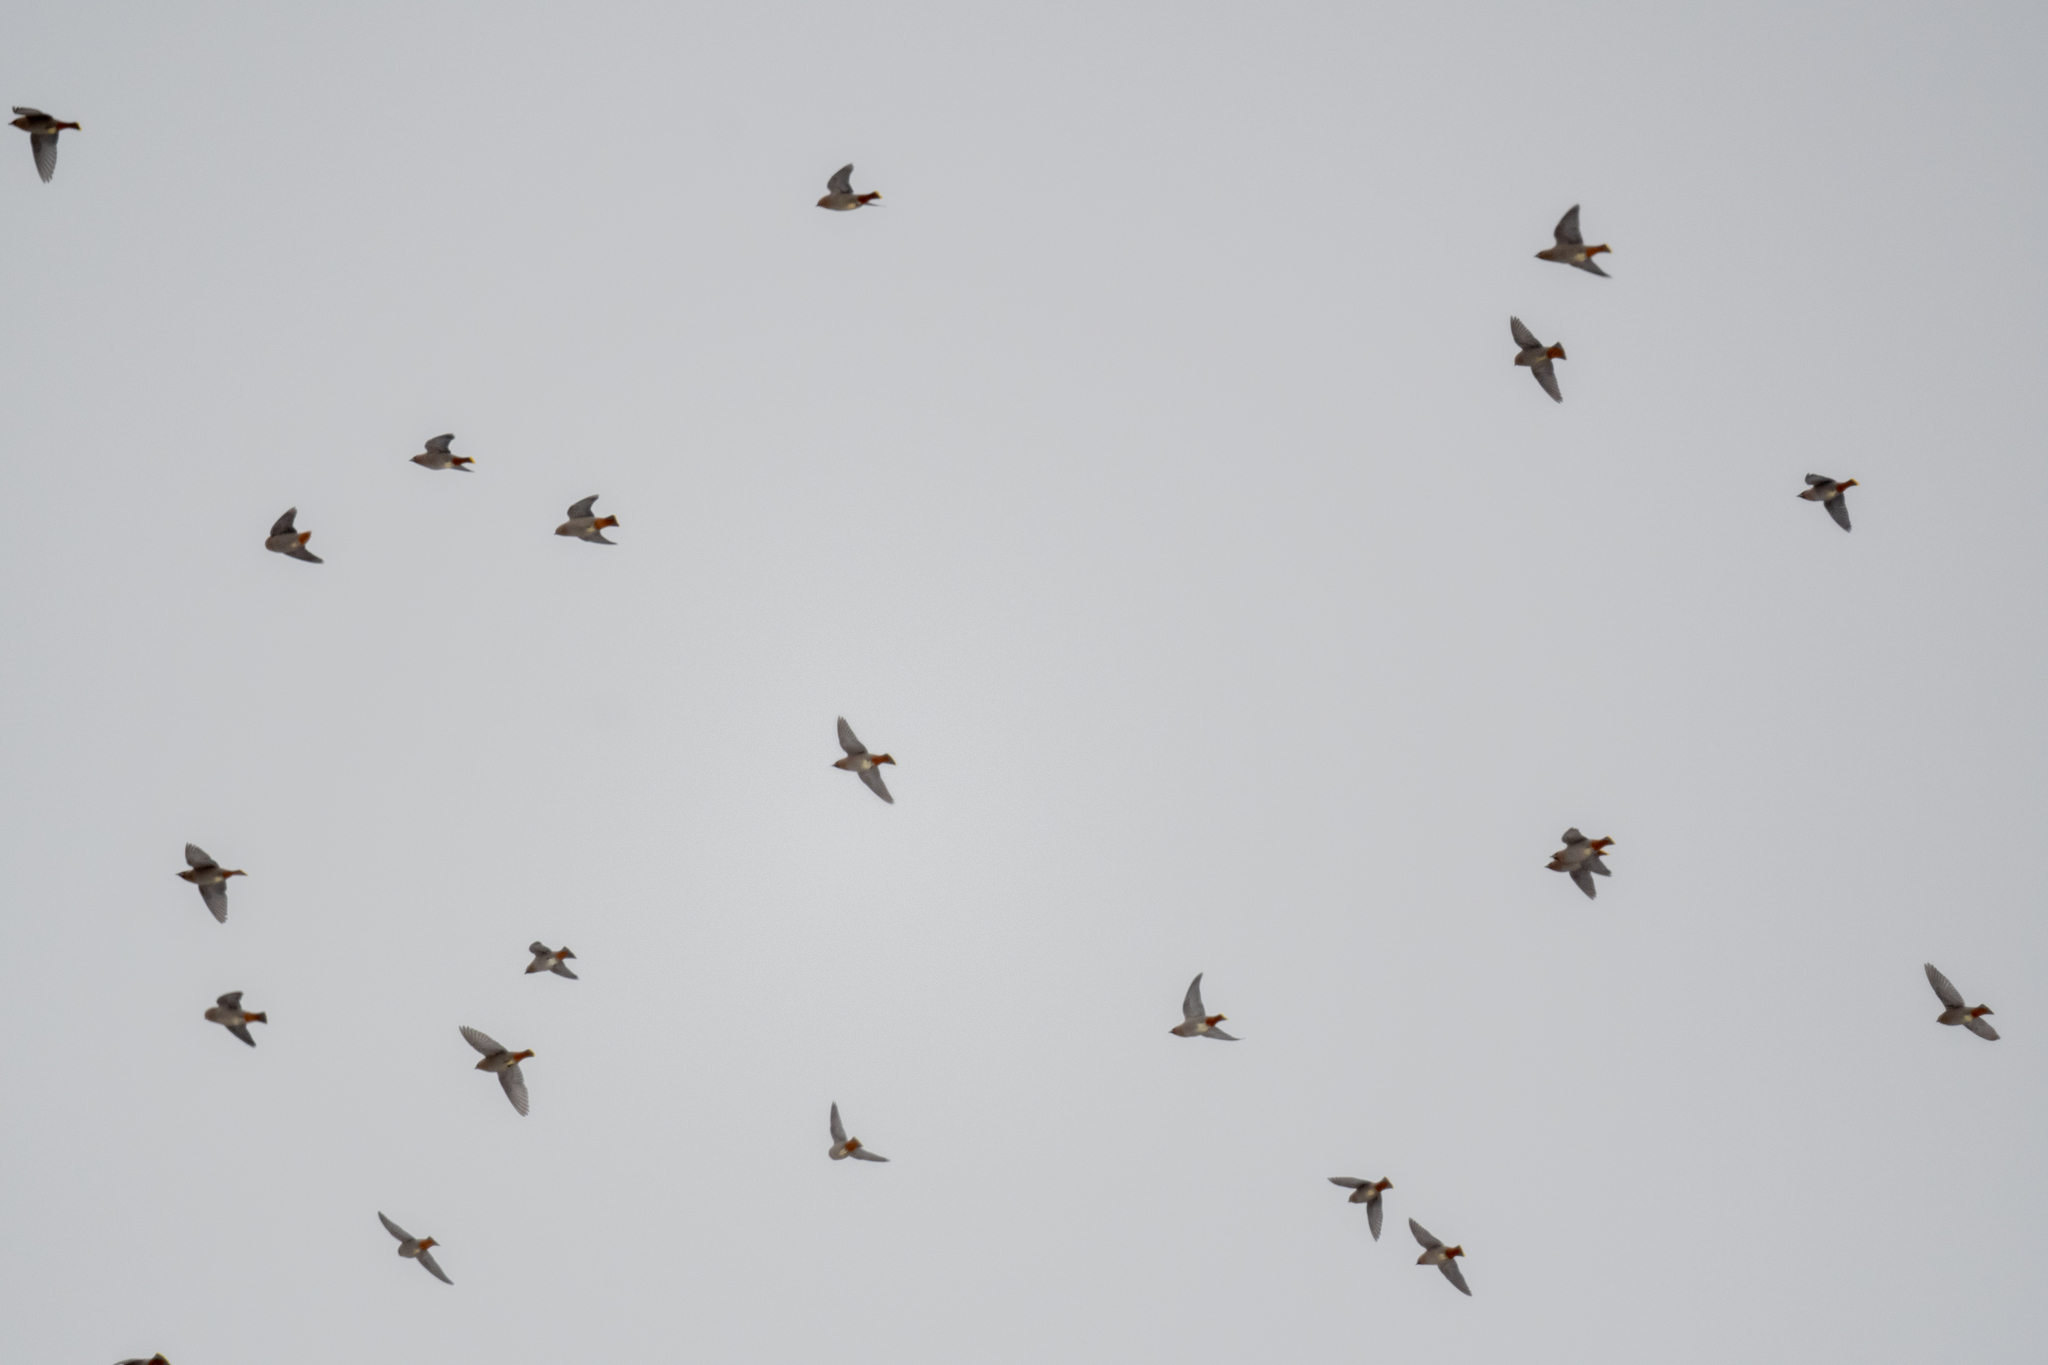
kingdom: Animalia
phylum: Chordata
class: Aves
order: Passeriformes
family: Bombycillidae
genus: Bombycilla
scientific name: Bombycilla garrulus
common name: Bohemian waxwing
